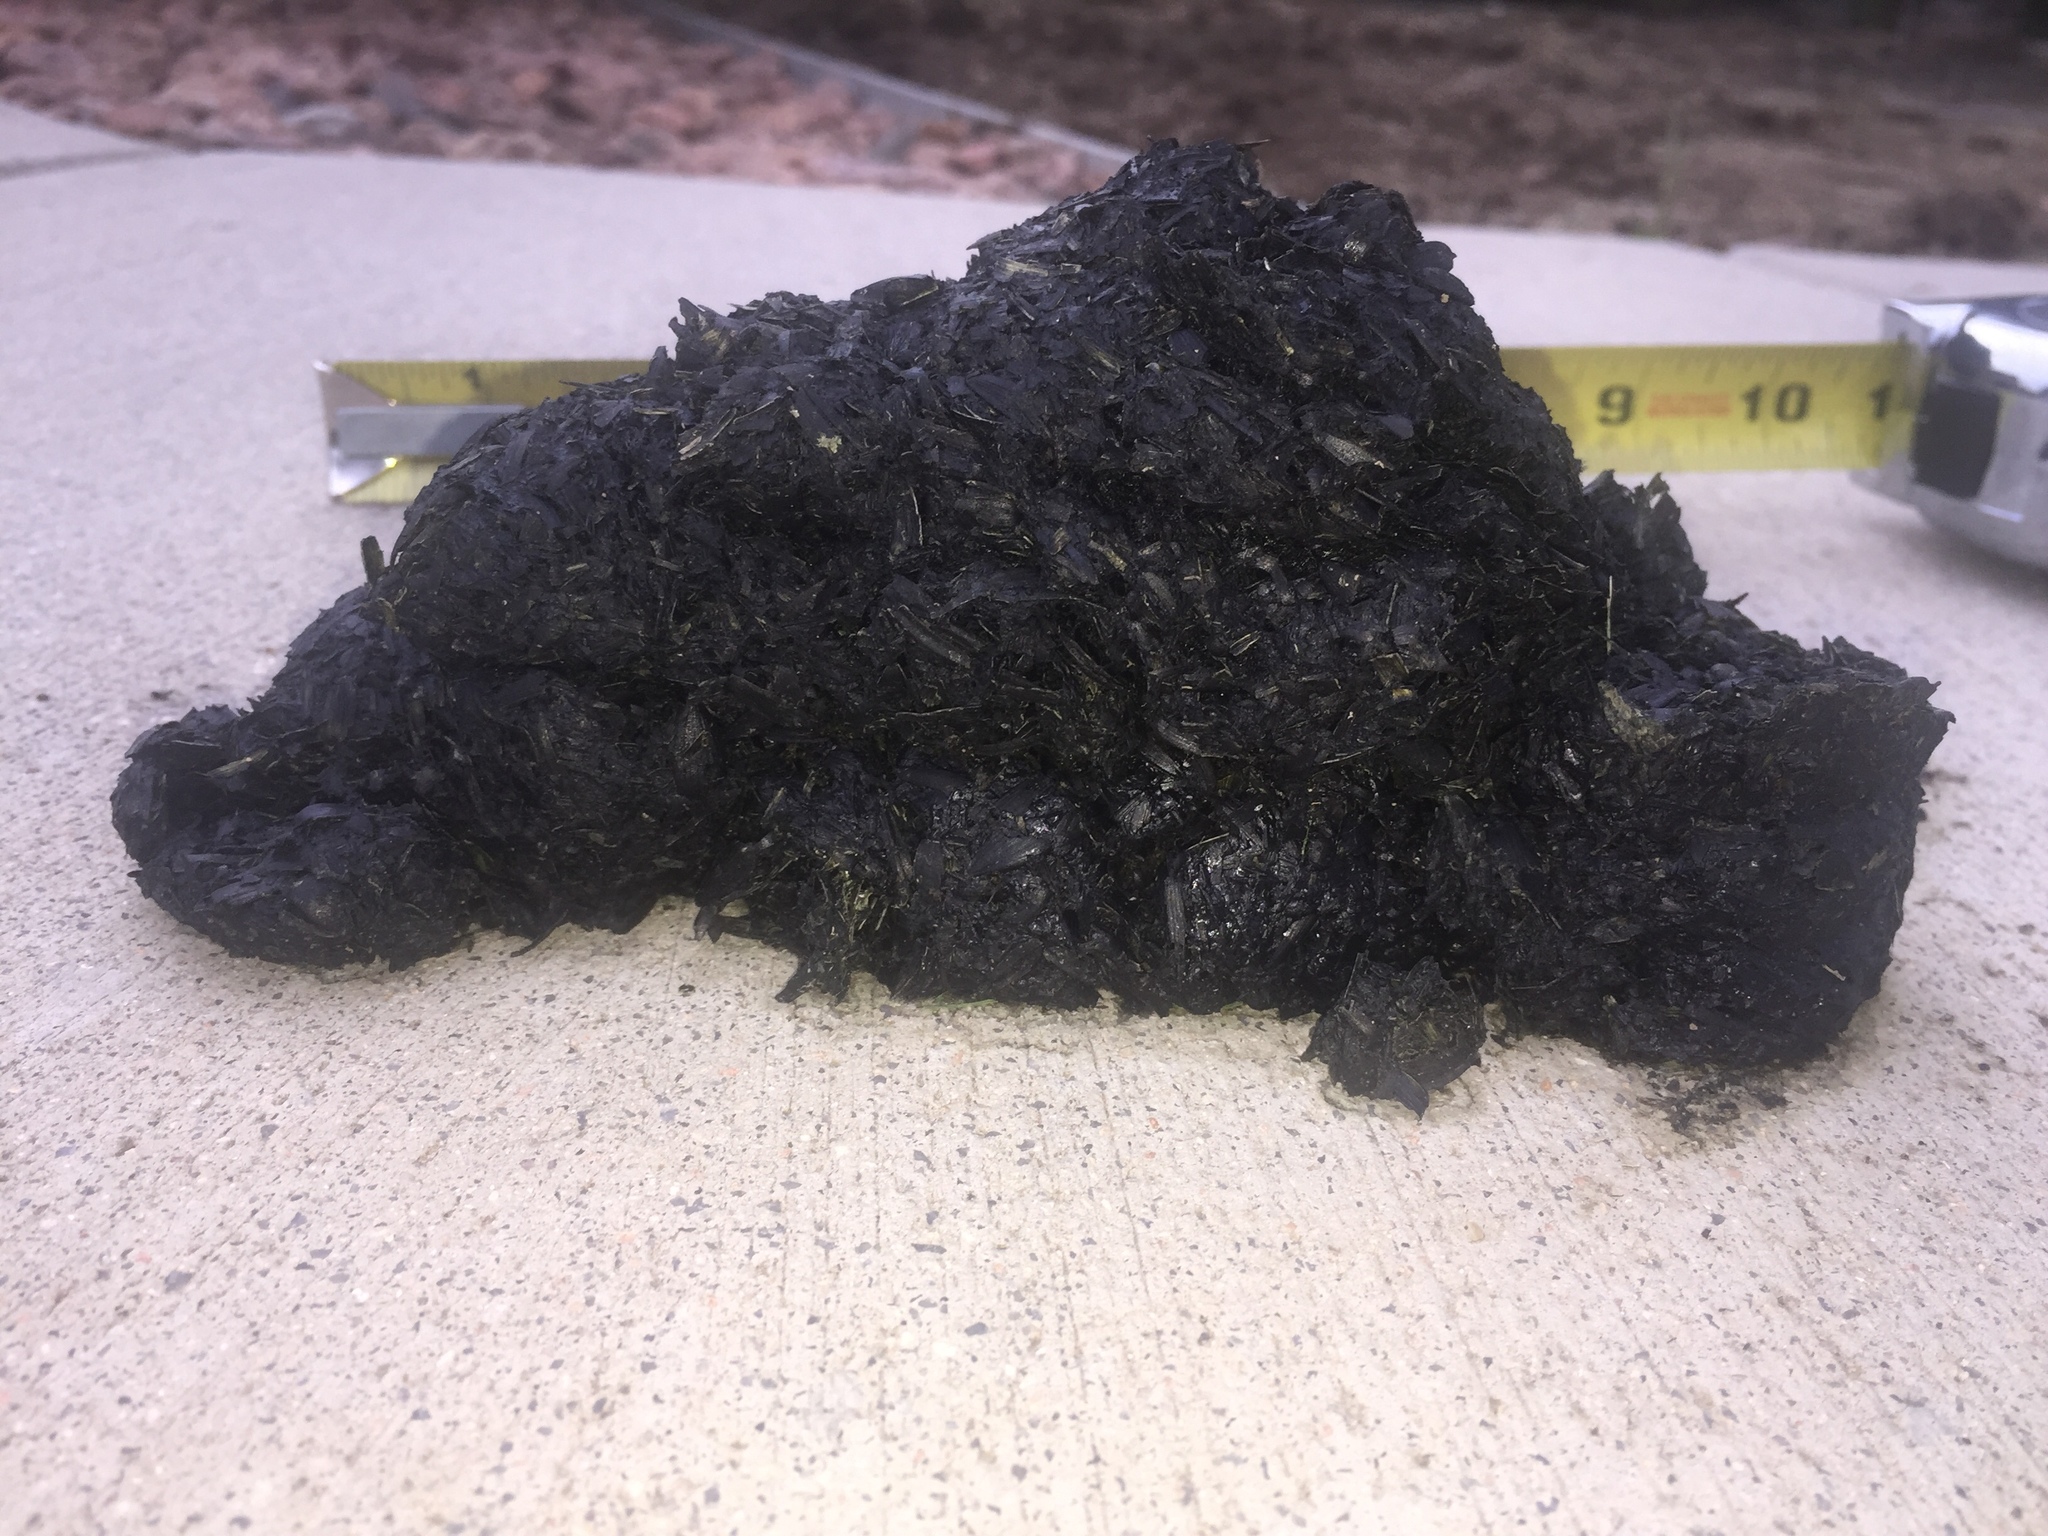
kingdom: Animalia
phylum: Chordata
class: Mammalia
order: Carnivora
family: Ursidae
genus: Ursus
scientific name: Ursus americanus
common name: American black bear
